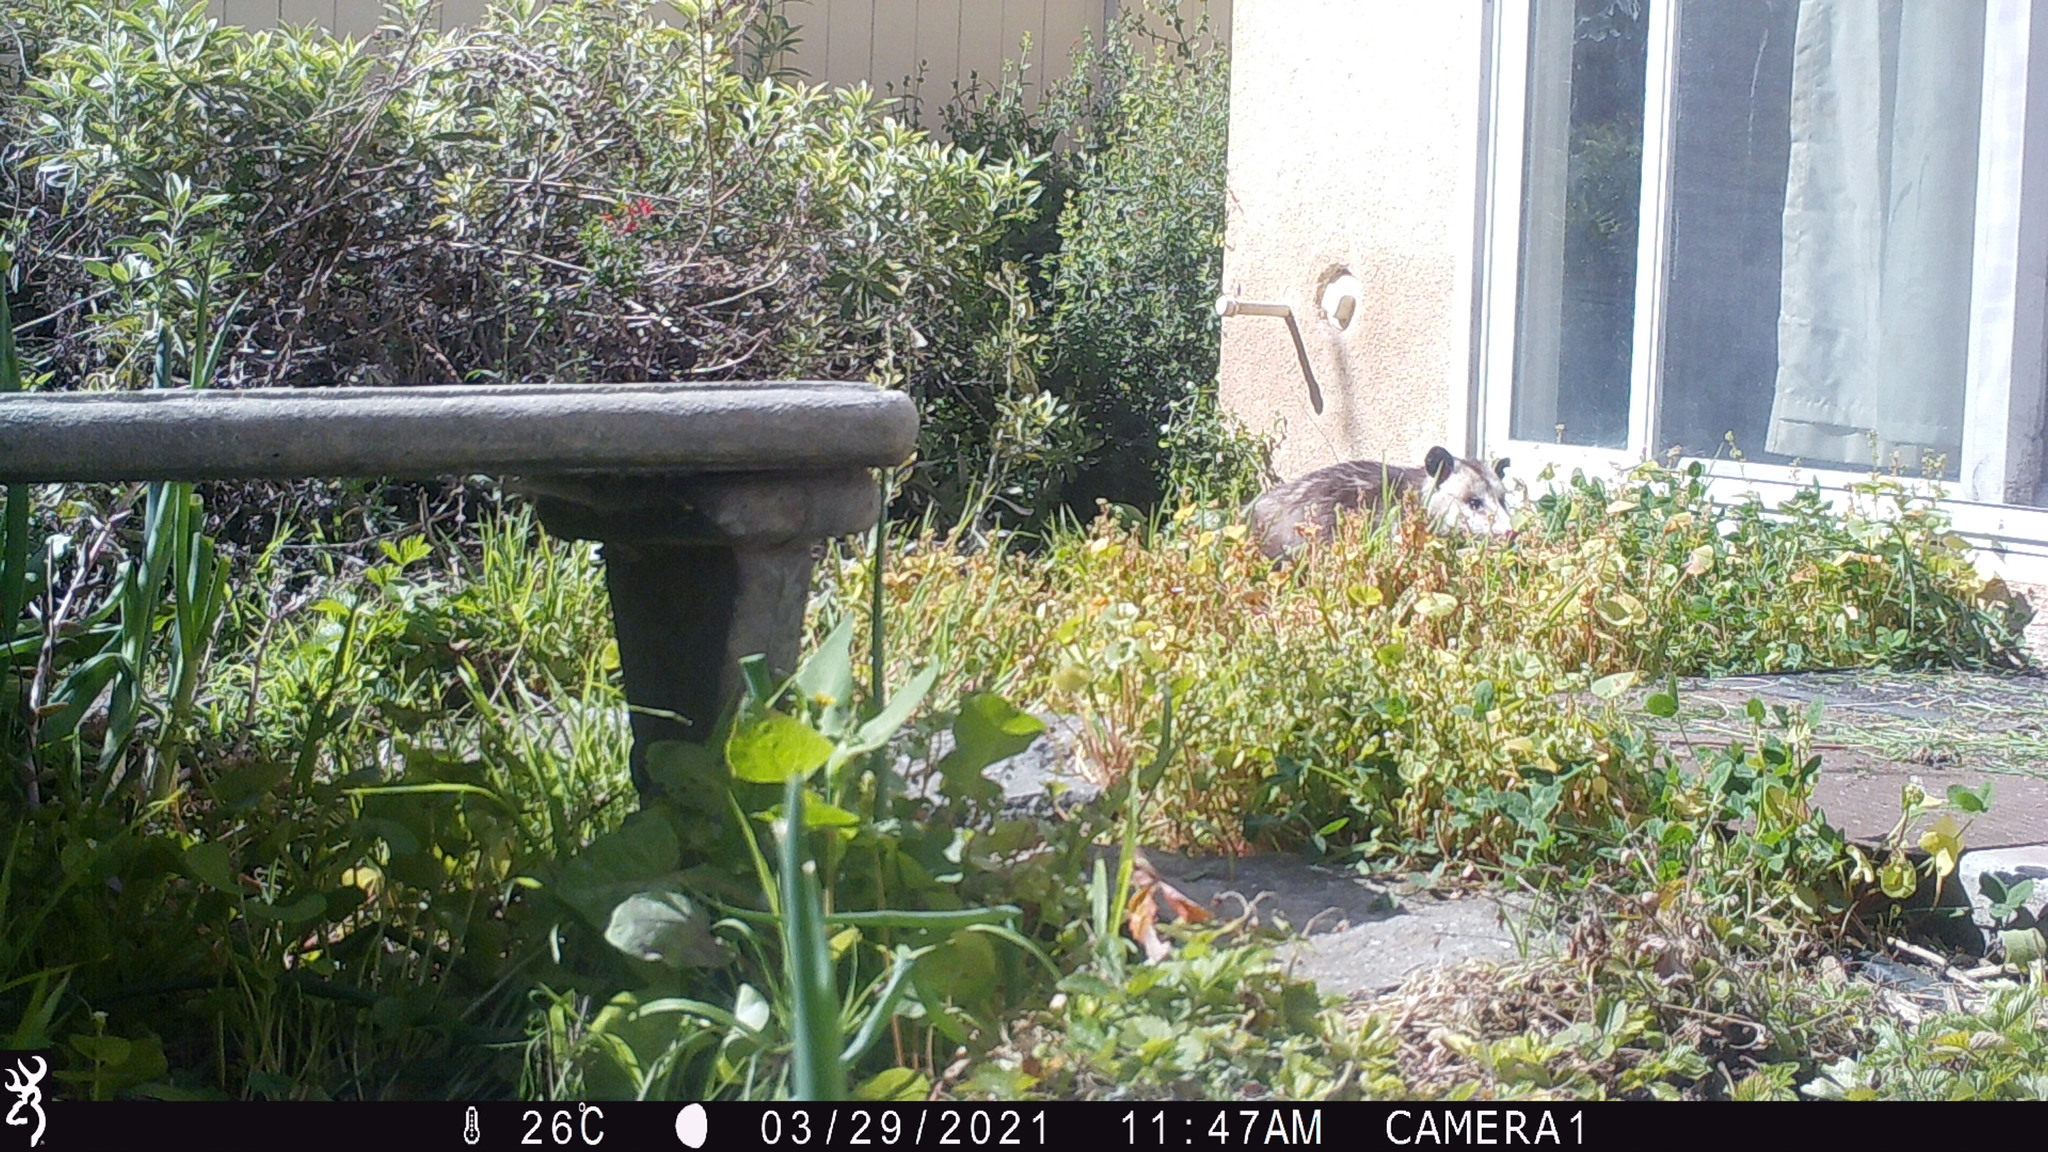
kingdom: Animalia
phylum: Chordata
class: Mammalia
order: Didelphimorphia
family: Didelphidae
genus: Didelphis
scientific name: Didelphis virginiana
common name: Virginia opossum
